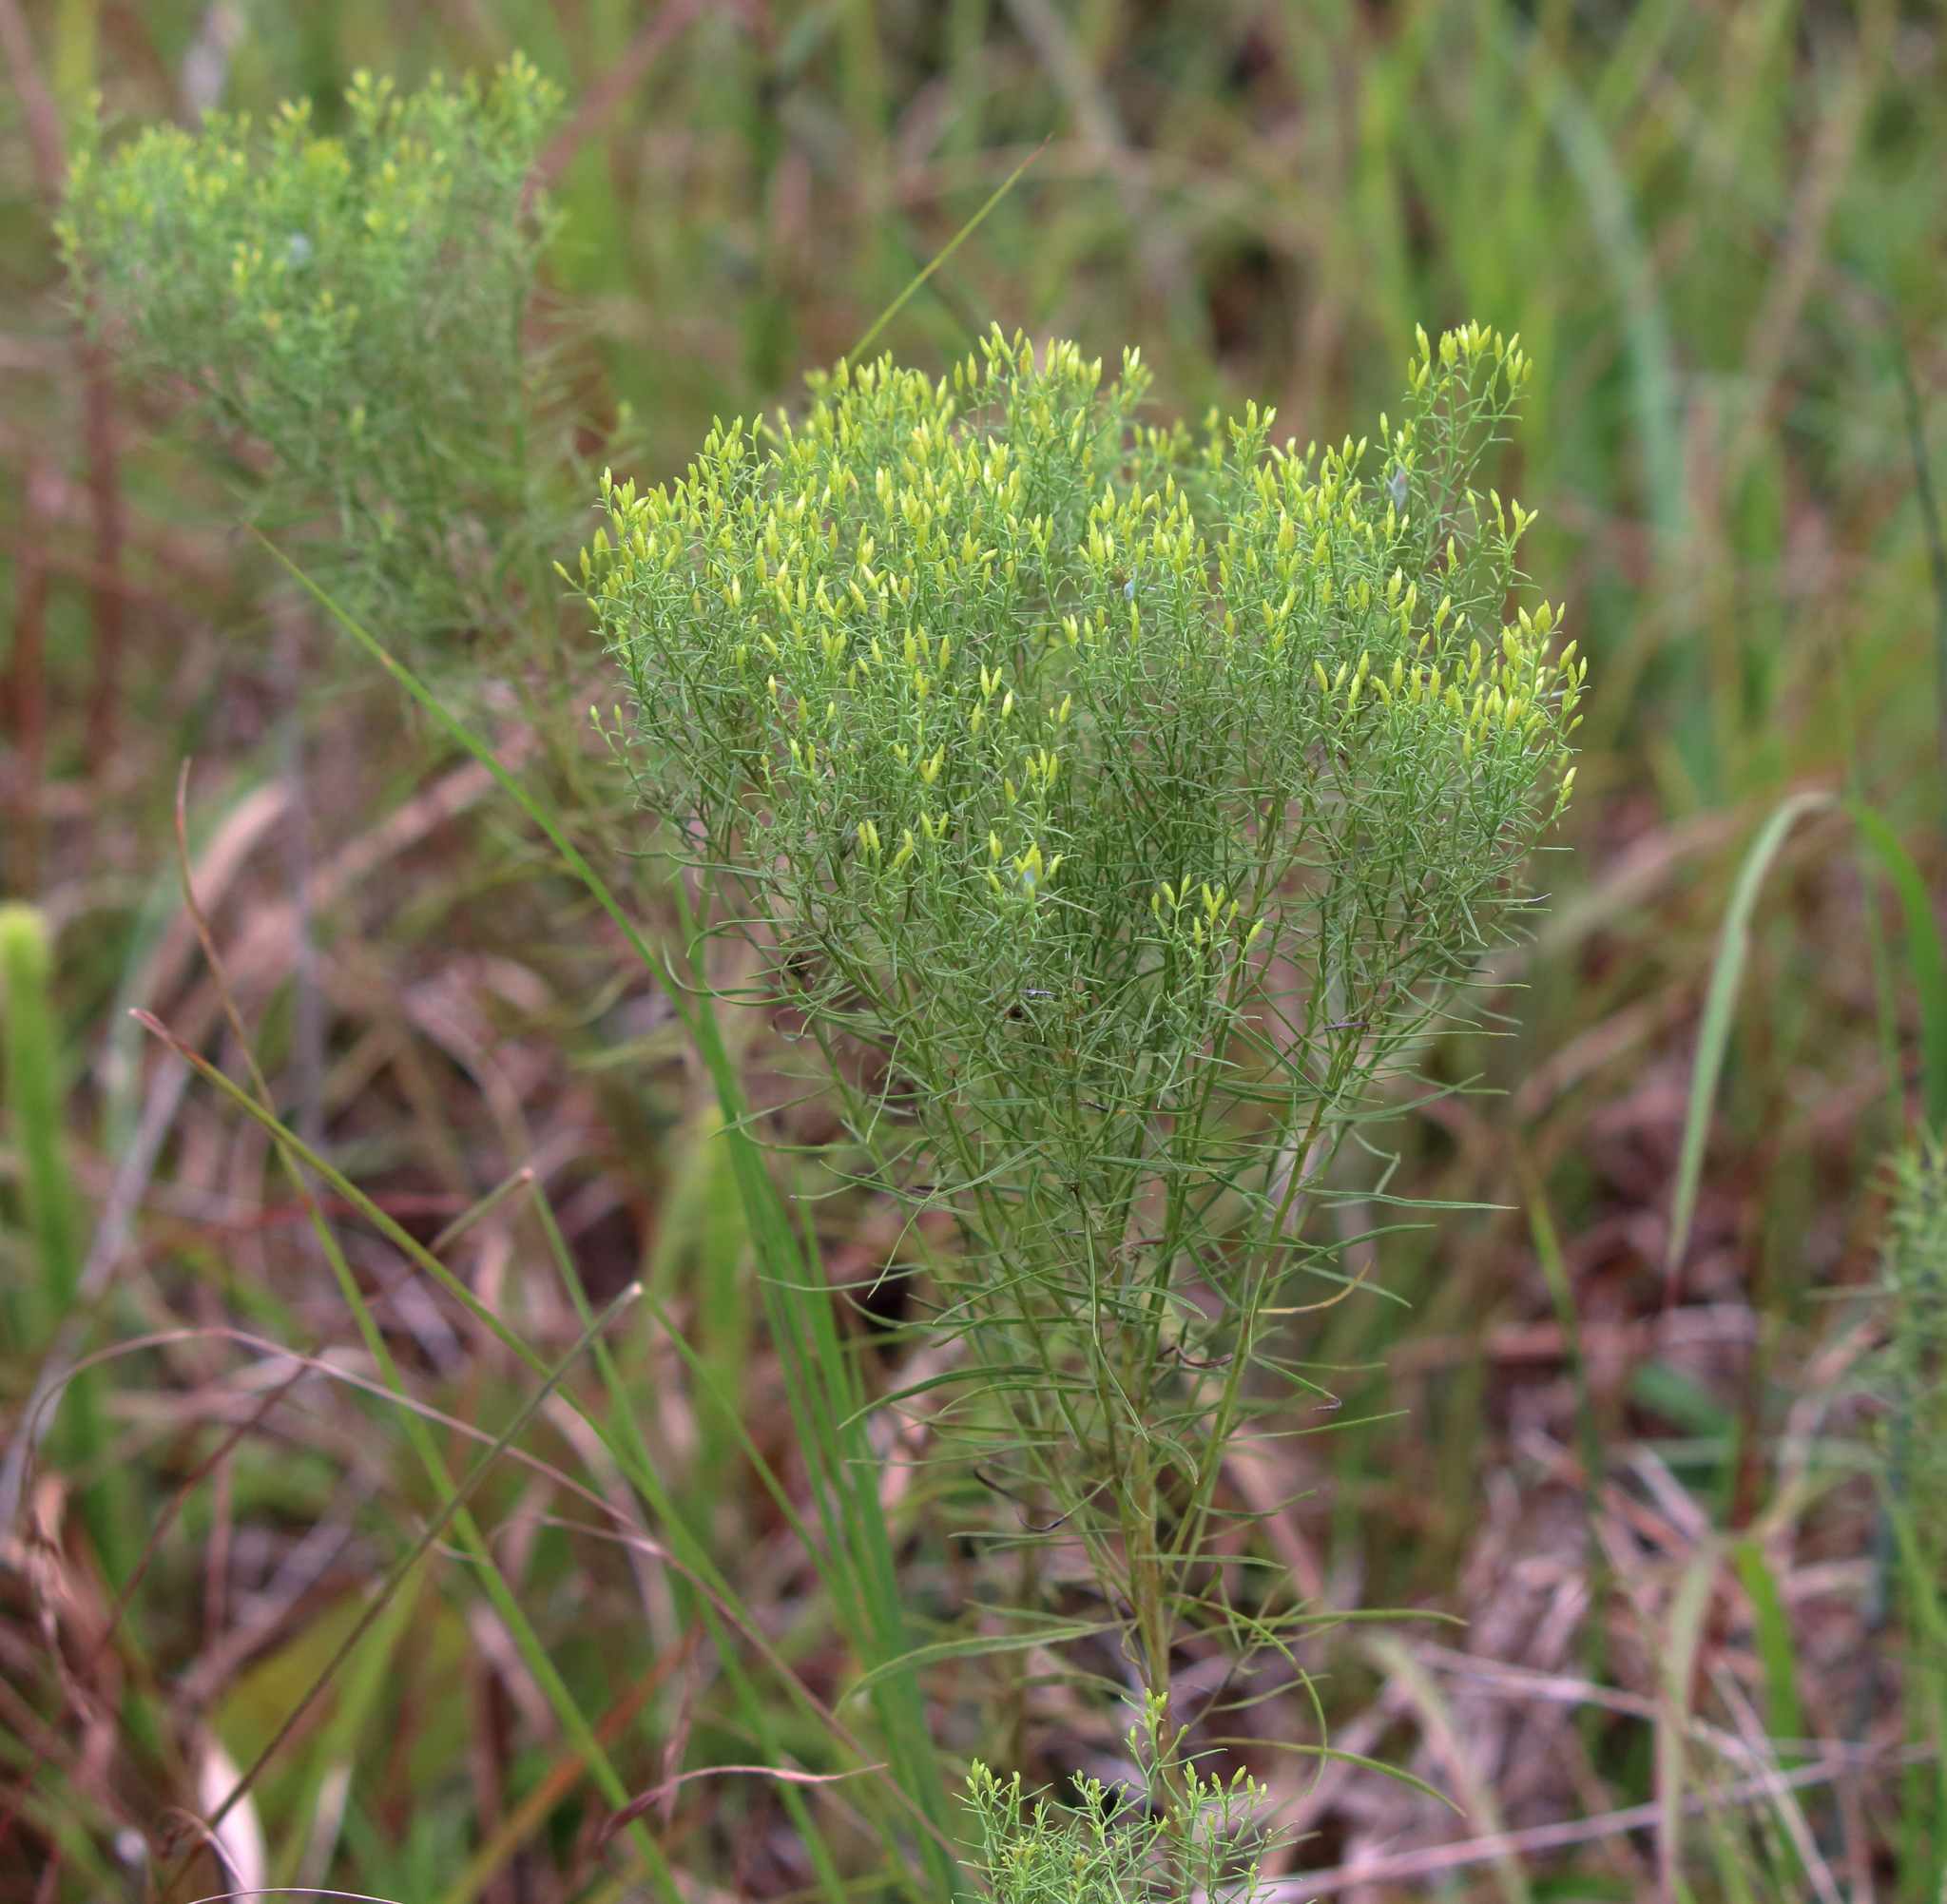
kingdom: Plantae
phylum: Tracheophyta
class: Magnoliopsida
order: Asterales
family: Asteraceae
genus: Euthamia
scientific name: Euthamia caroliniana
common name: Coastal plain goldentop
